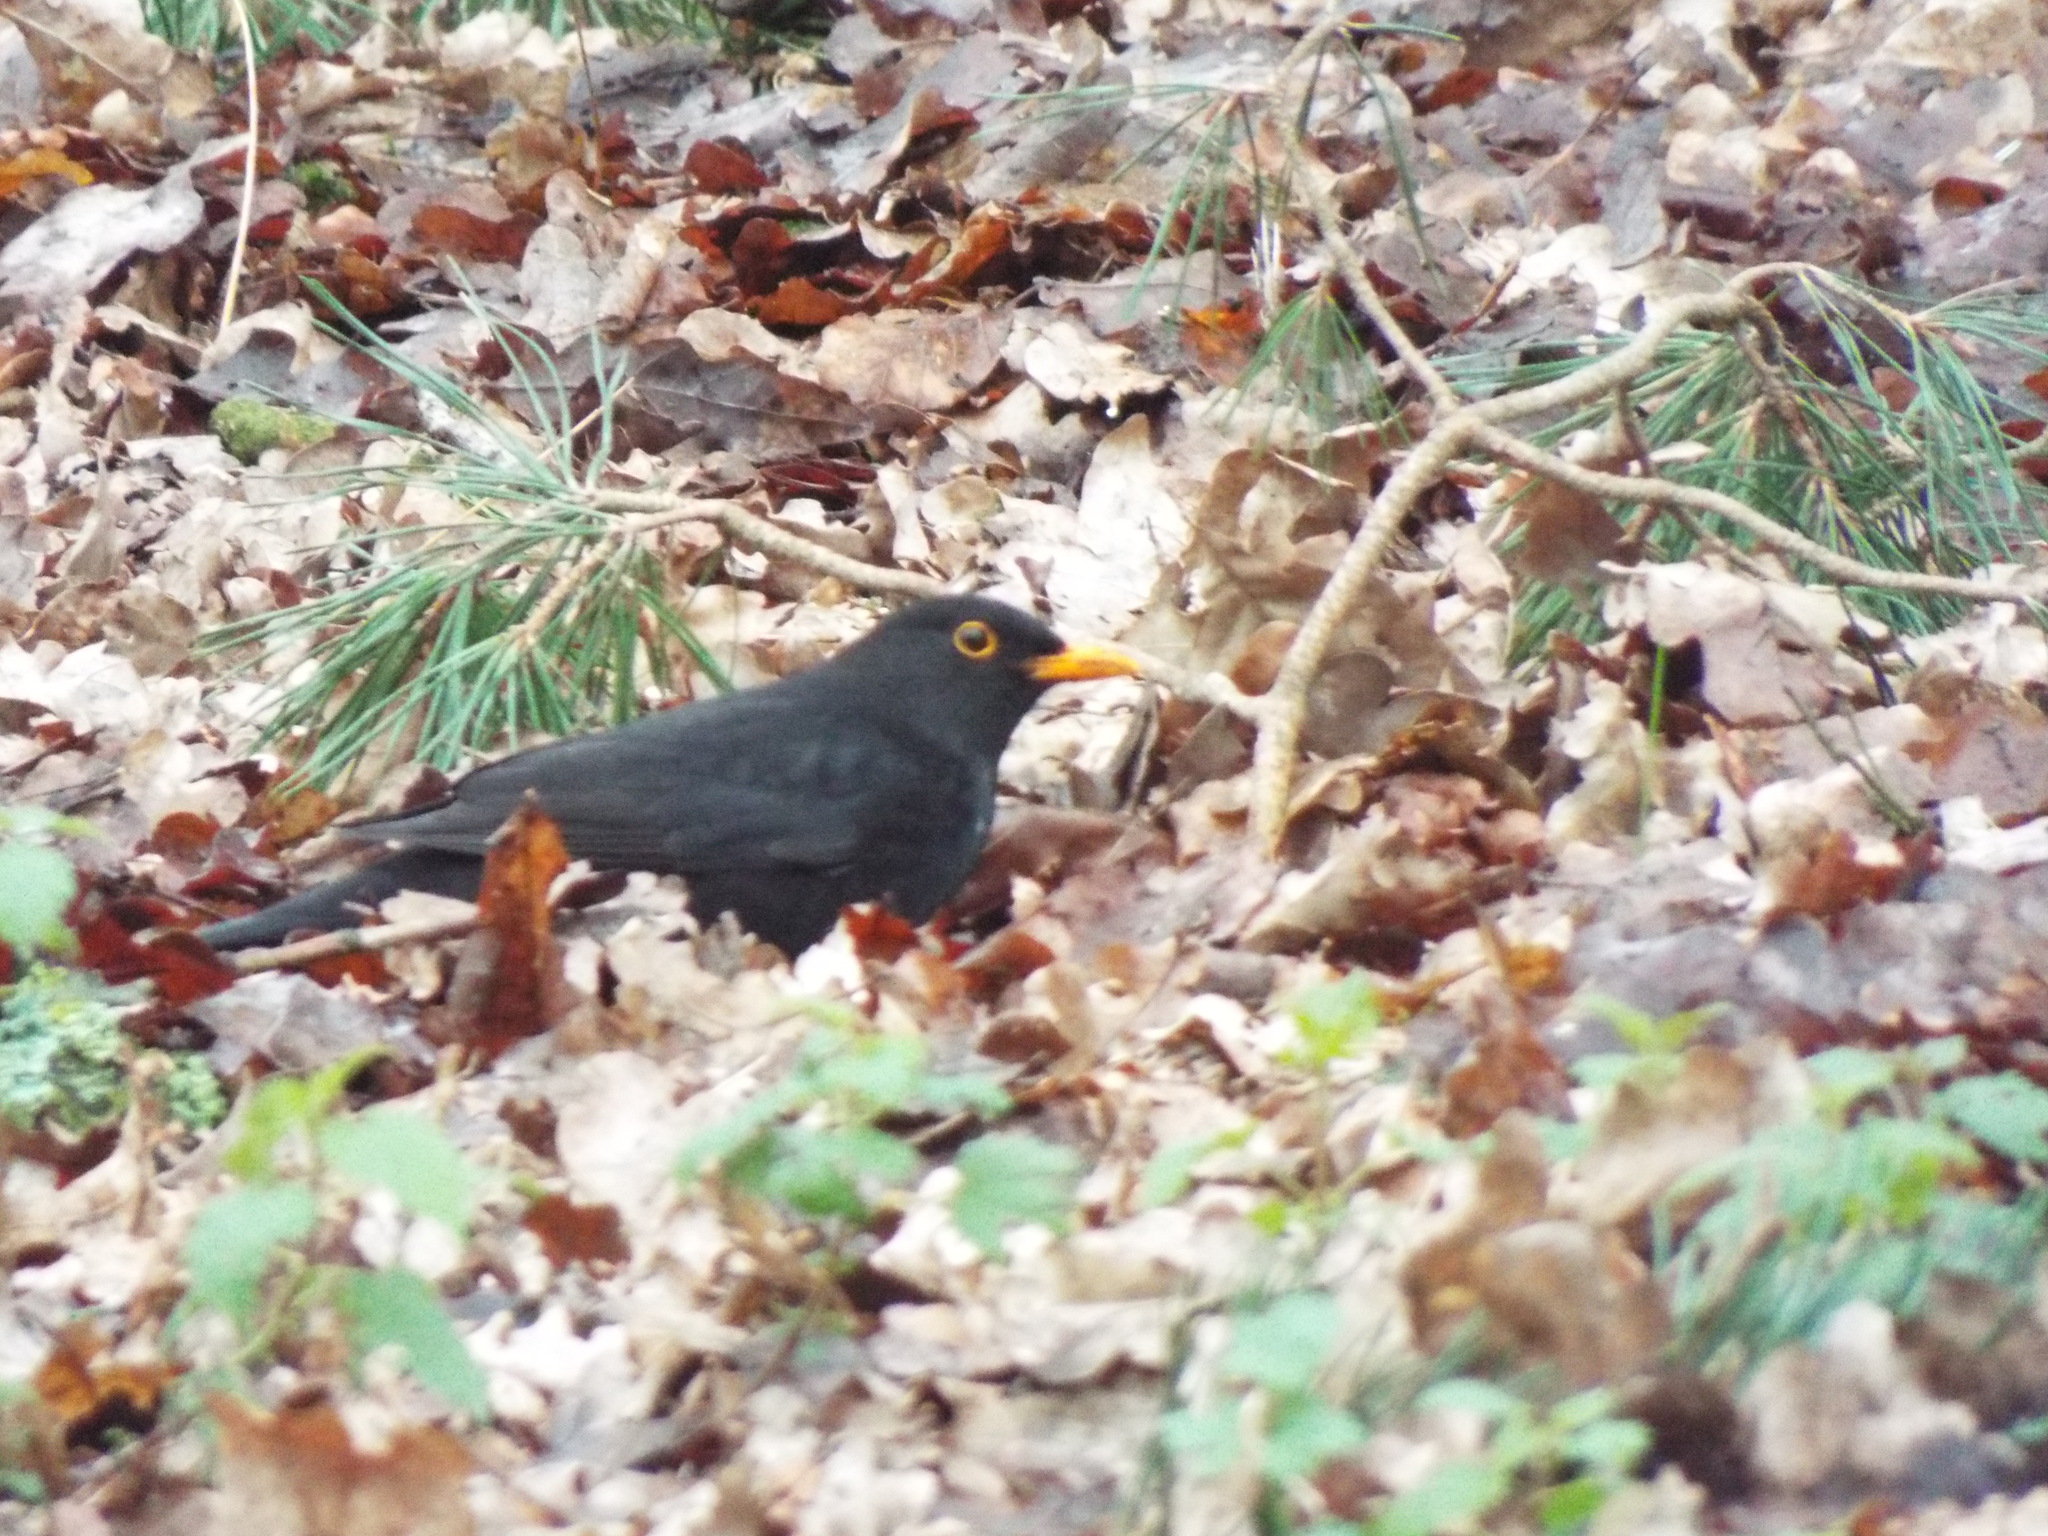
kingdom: Animalia
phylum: Chordata
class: Aves
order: Passeriformes
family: Turdidae
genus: Turdus
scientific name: Turdus merula
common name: Common blackbird
